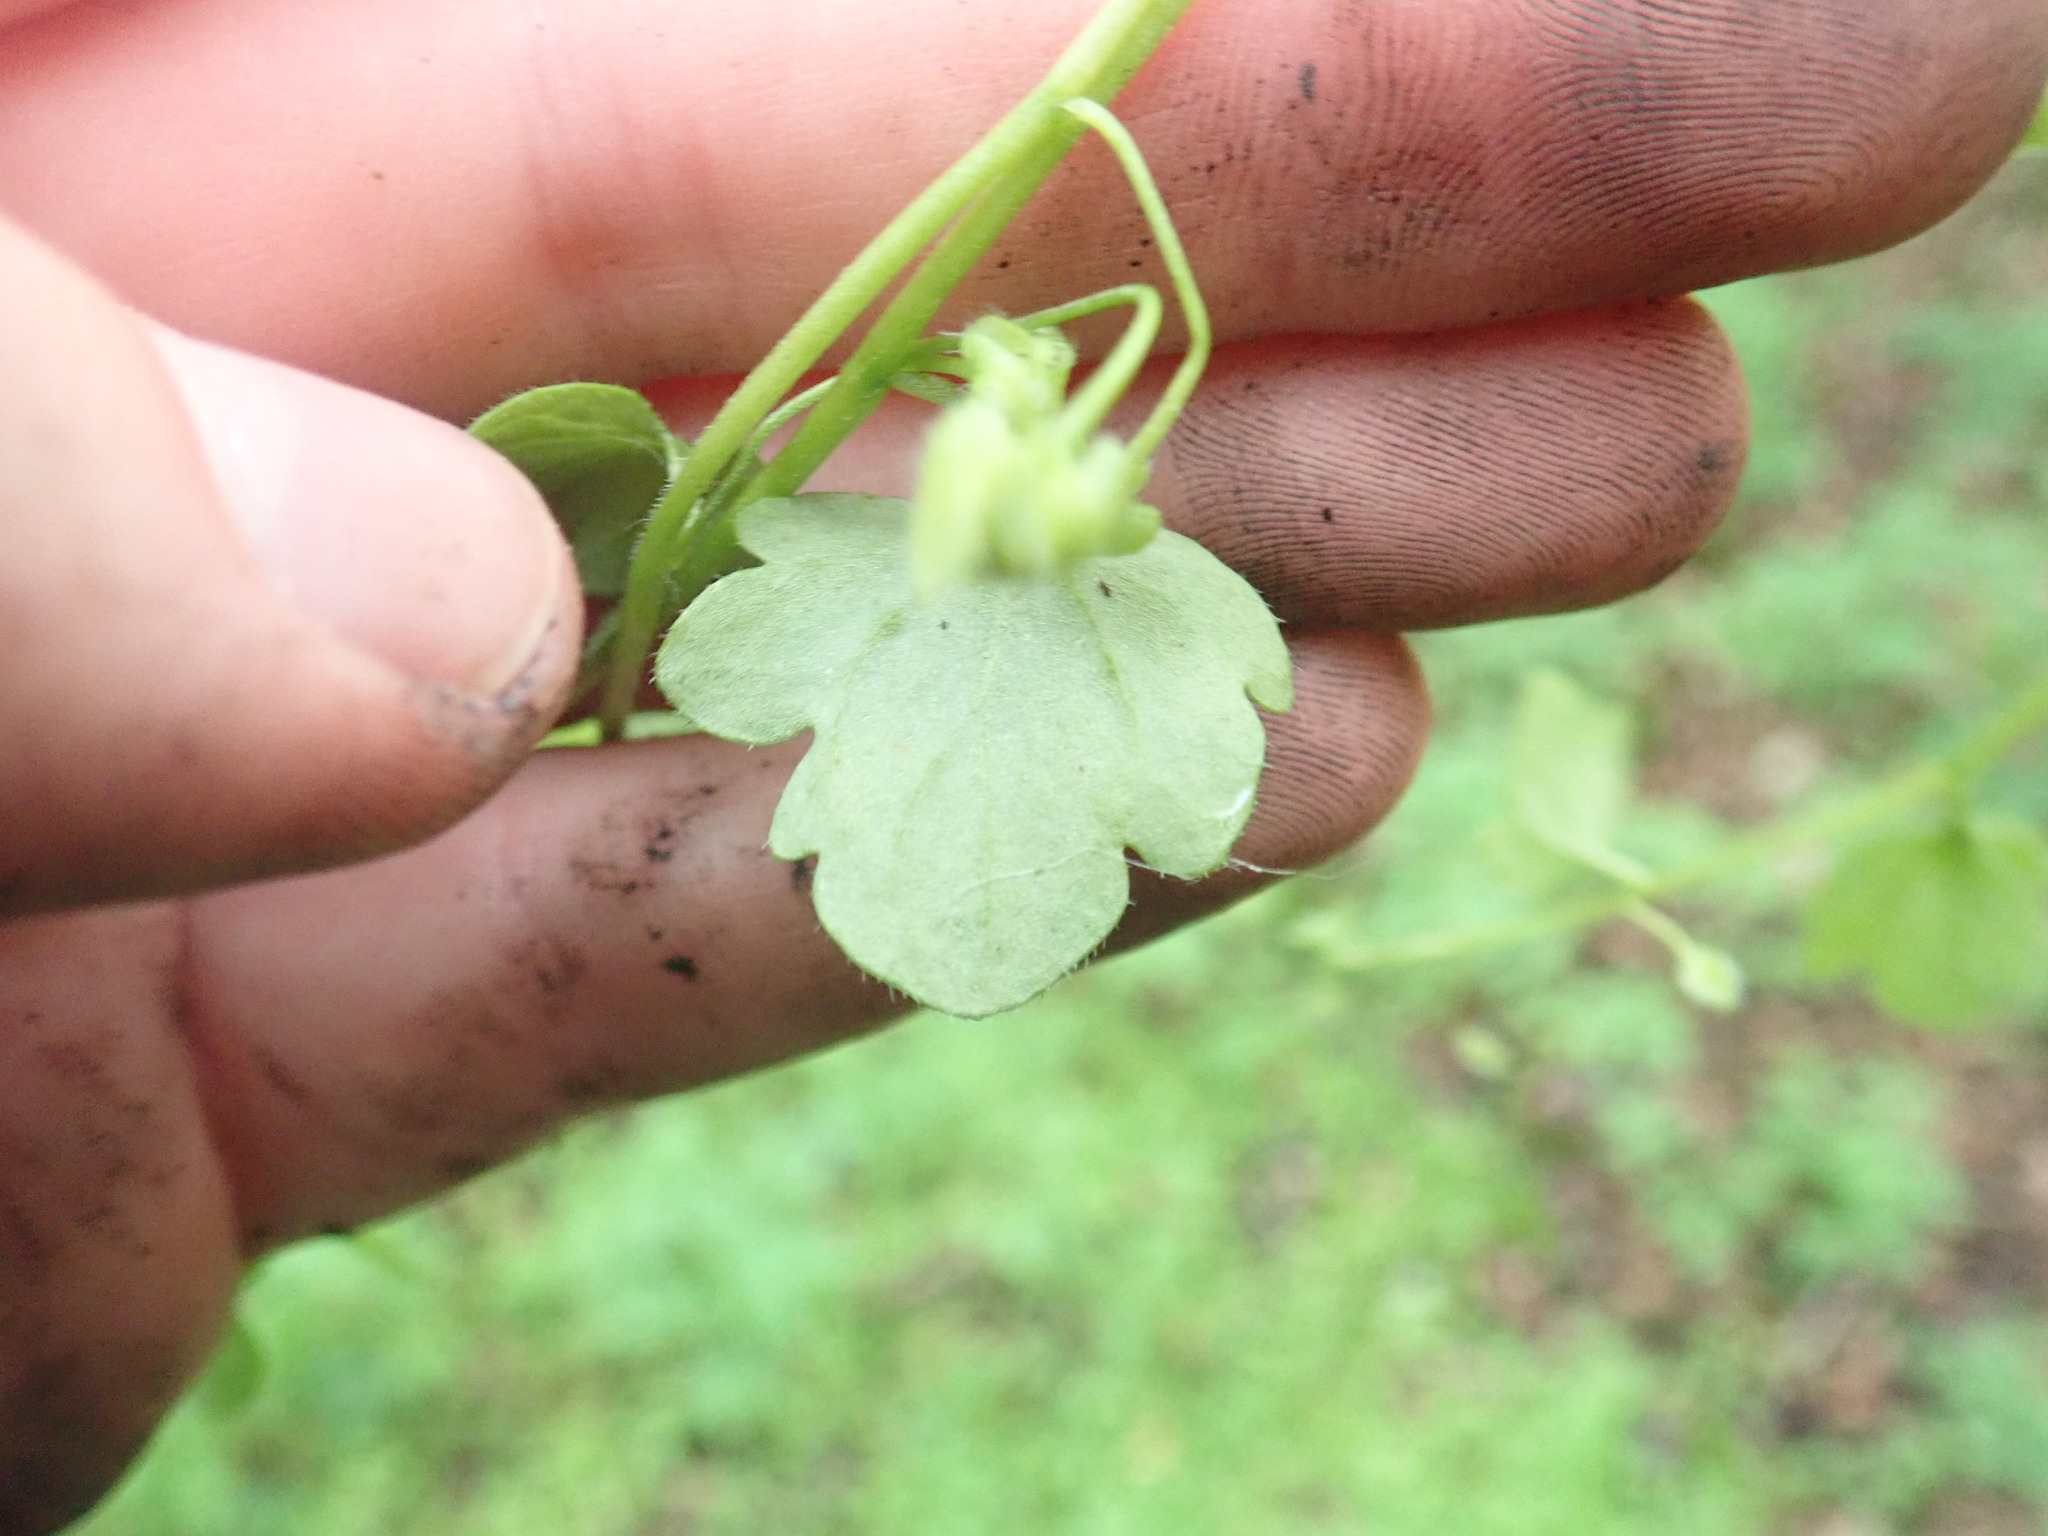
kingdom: Plantae
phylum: Tracheophyta
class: Magnoliopsida
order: Lamiales
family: Plantaginaceae
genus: Veronica
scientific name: Veronica sublobata
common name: False ivy-leaved speedwell
